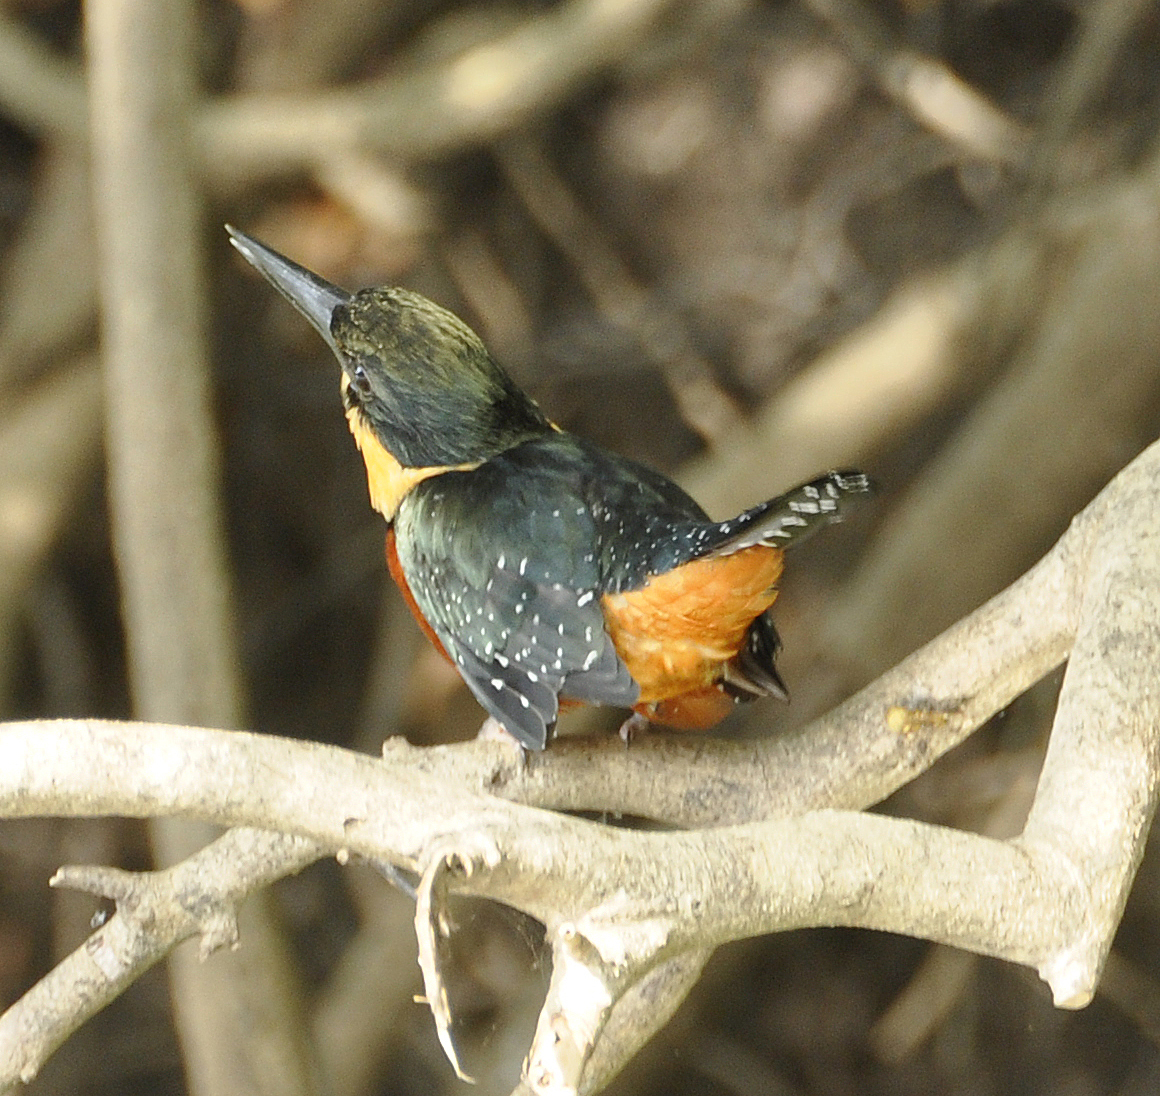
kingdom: Animalia
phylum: Chordata
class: Aves
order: Coraciiformes
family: Alcedinidae
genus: Chloroceryle
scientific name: Chloroceryle inda
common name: Green-and-rufous kingfisher
